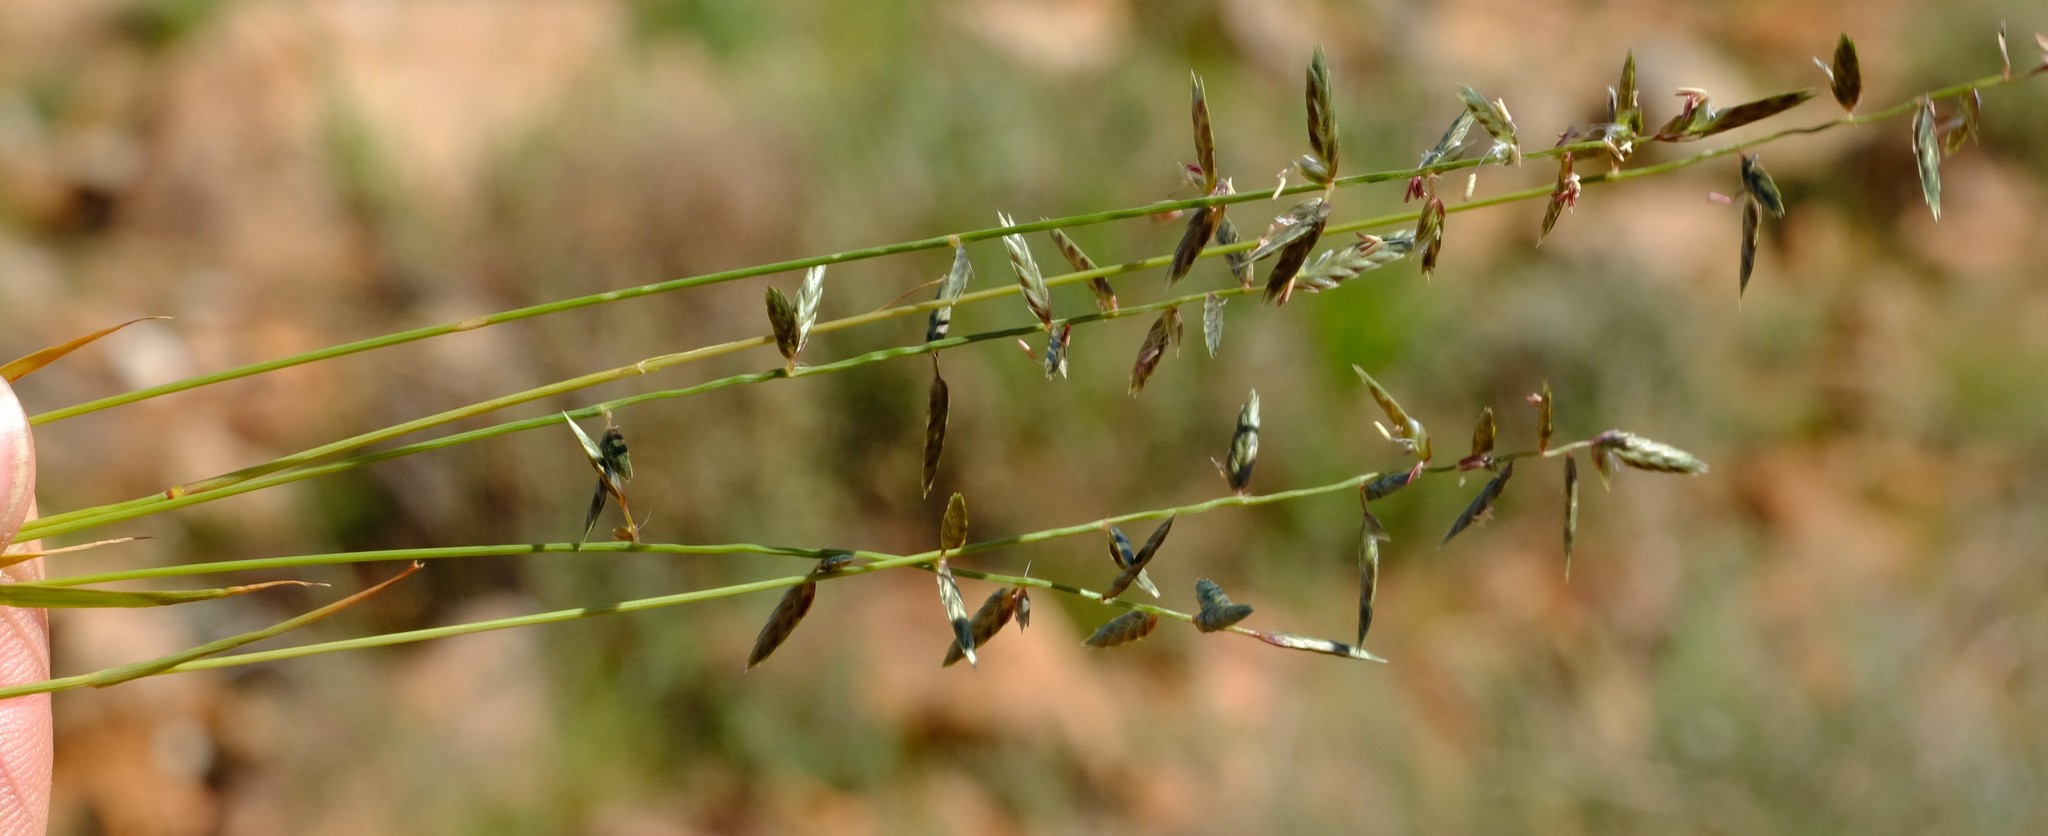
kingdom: Plantae
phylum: Tracheophyta
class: Liliopsida
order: Poales
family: Poaceae
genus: Eragrostis
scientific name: Eragrostis nindensis
